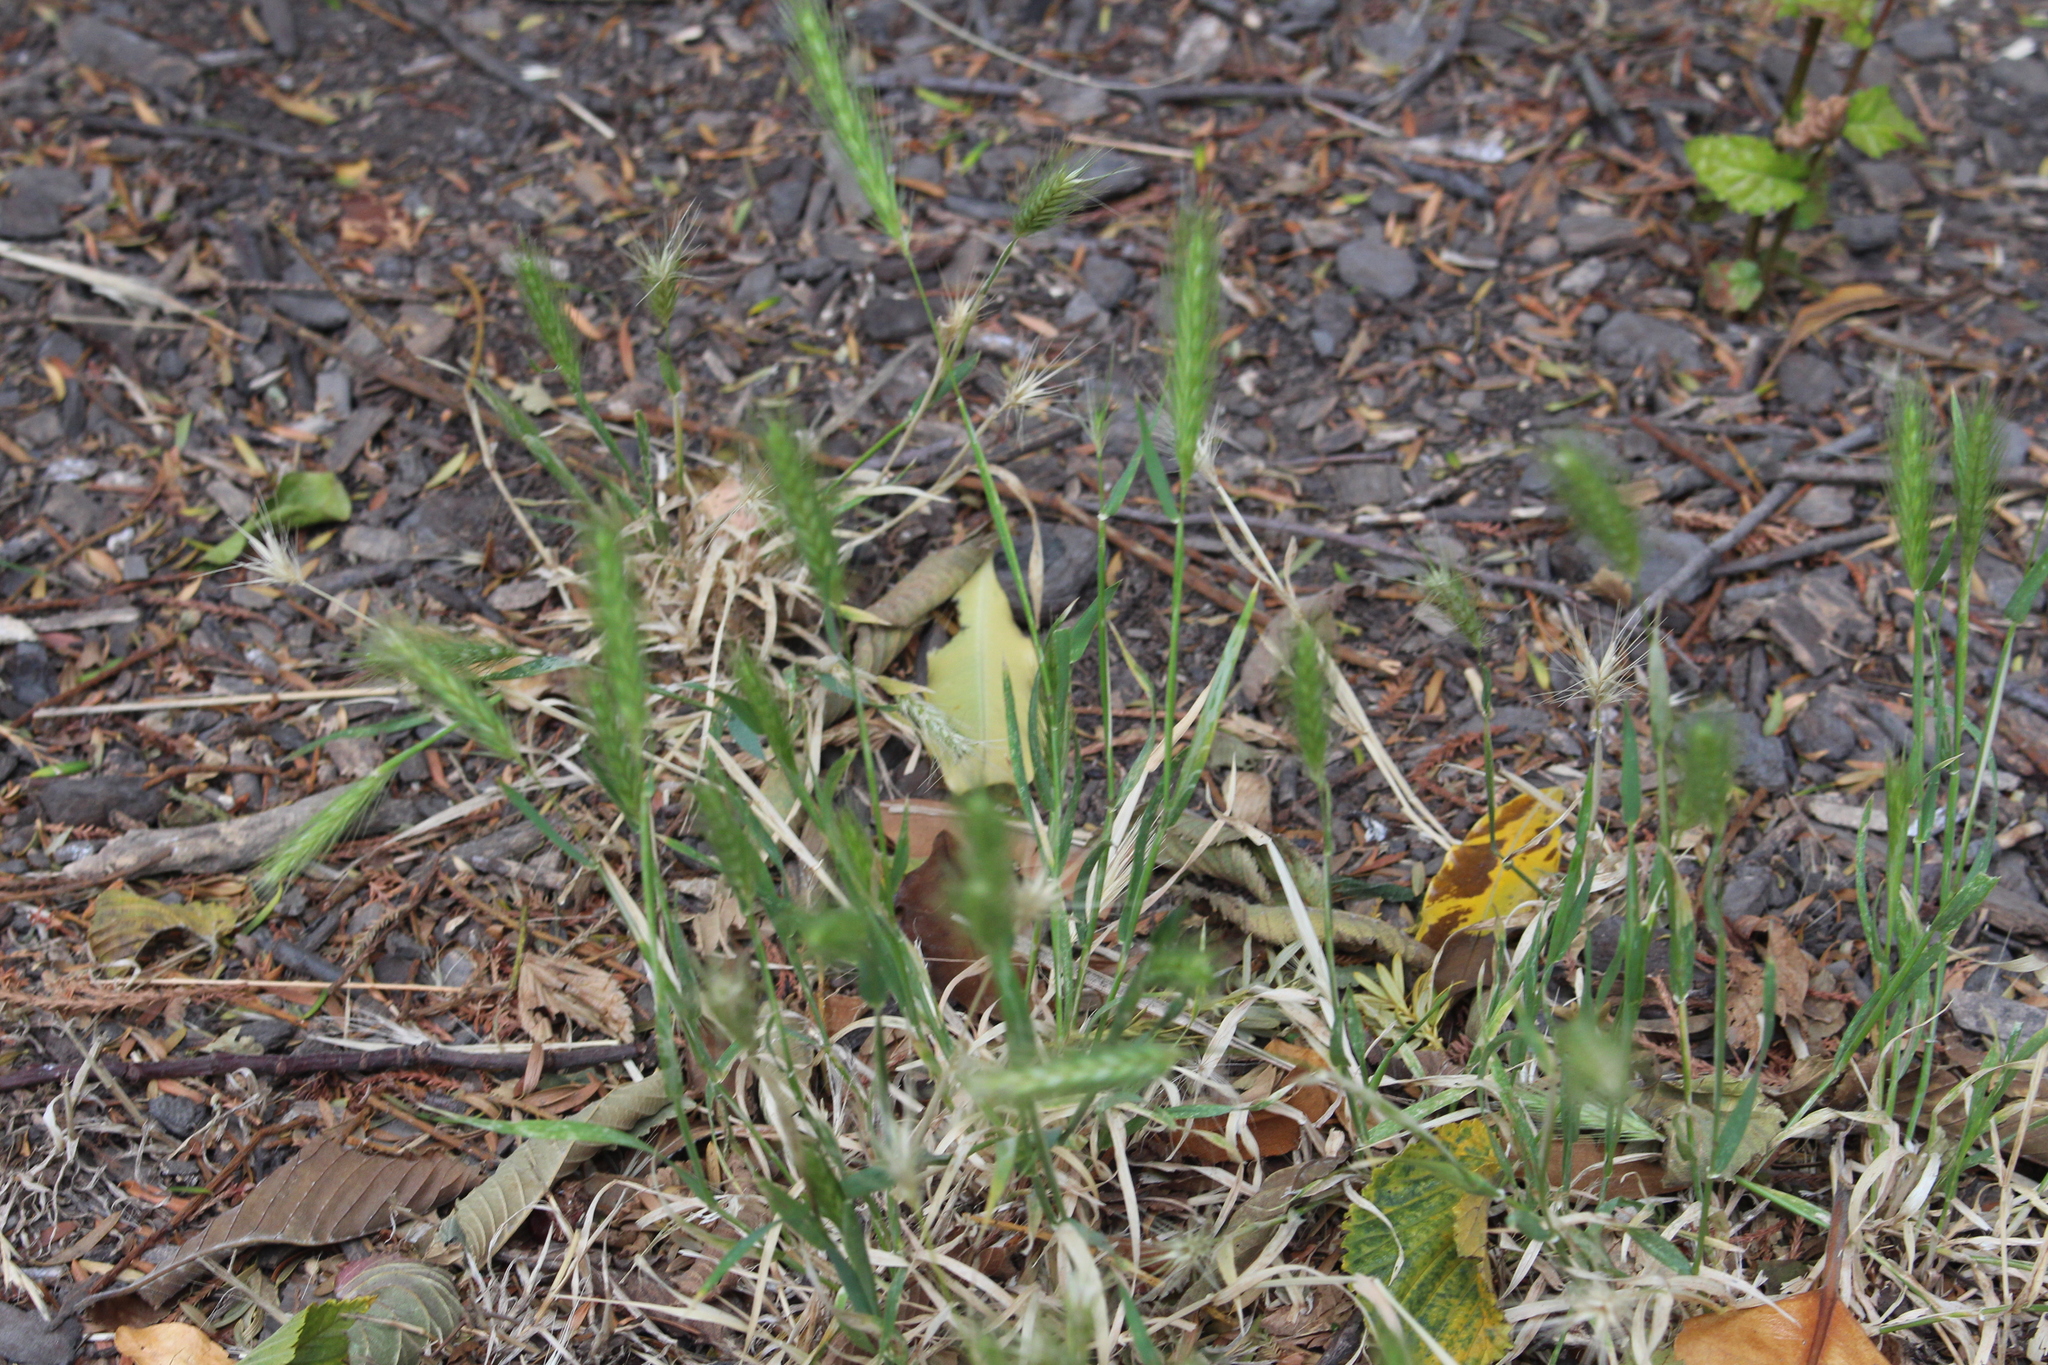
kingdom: Plantae
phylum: Tracheophyta
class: Liliopsida
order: Poales
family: Poaceae
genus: Hordeum
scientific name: Hordeum murinum
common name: Wall barley
